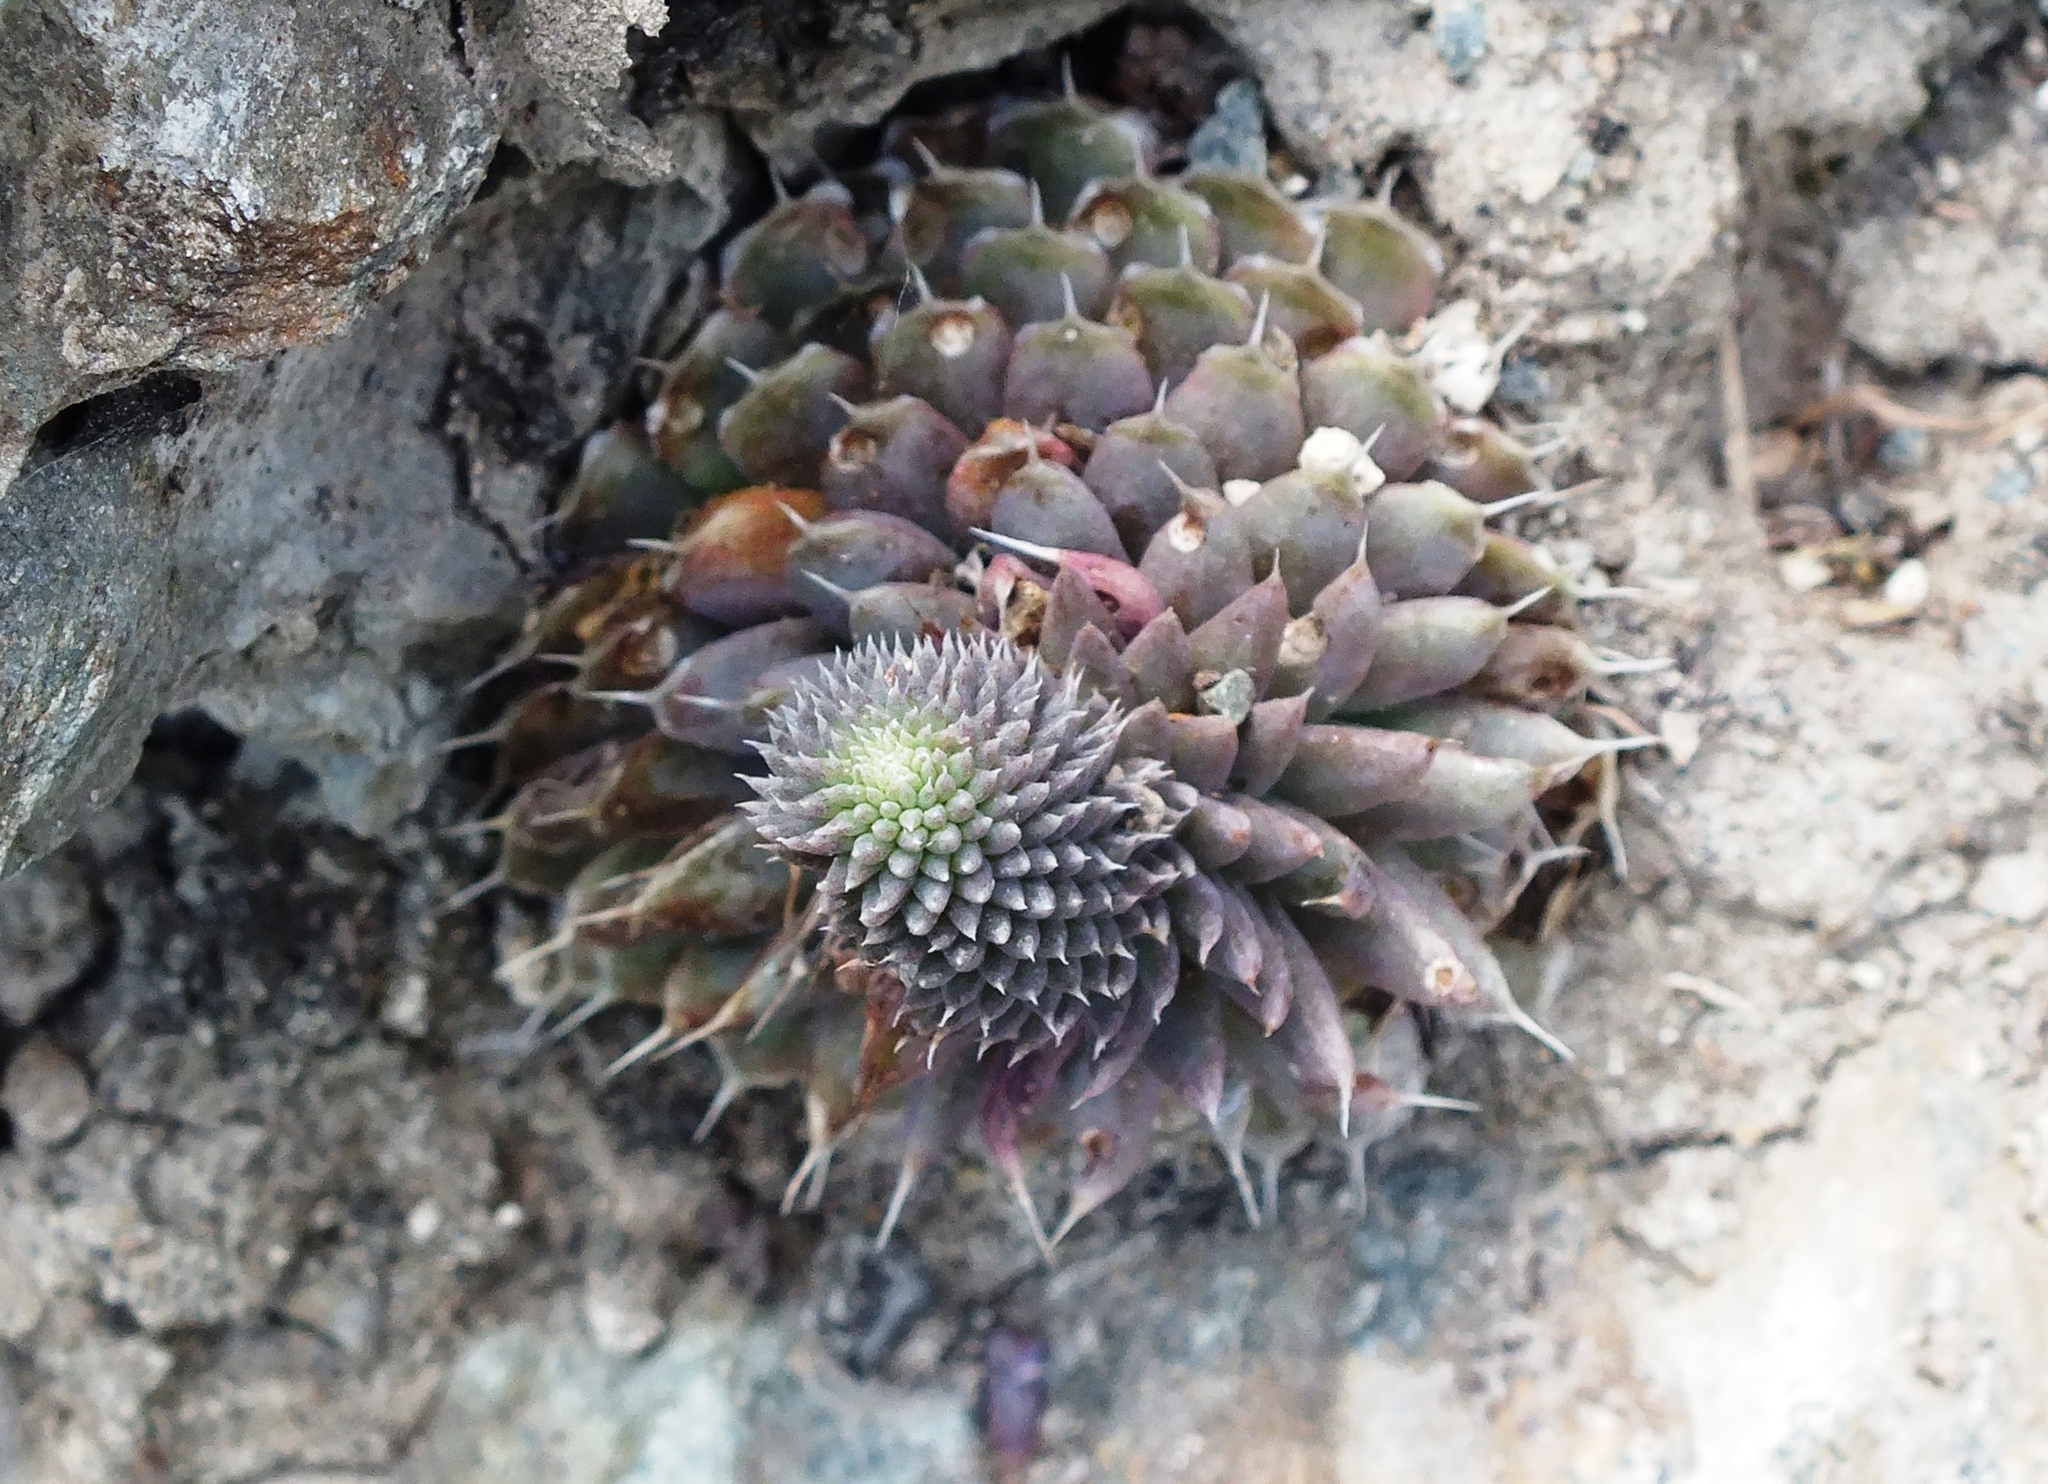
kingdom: Plantae
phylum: Tracheophyta
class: Magnoliopsida
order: Saxifragales
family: Crassulaceae
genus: Orostachys
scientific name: Orostachys spinosa
